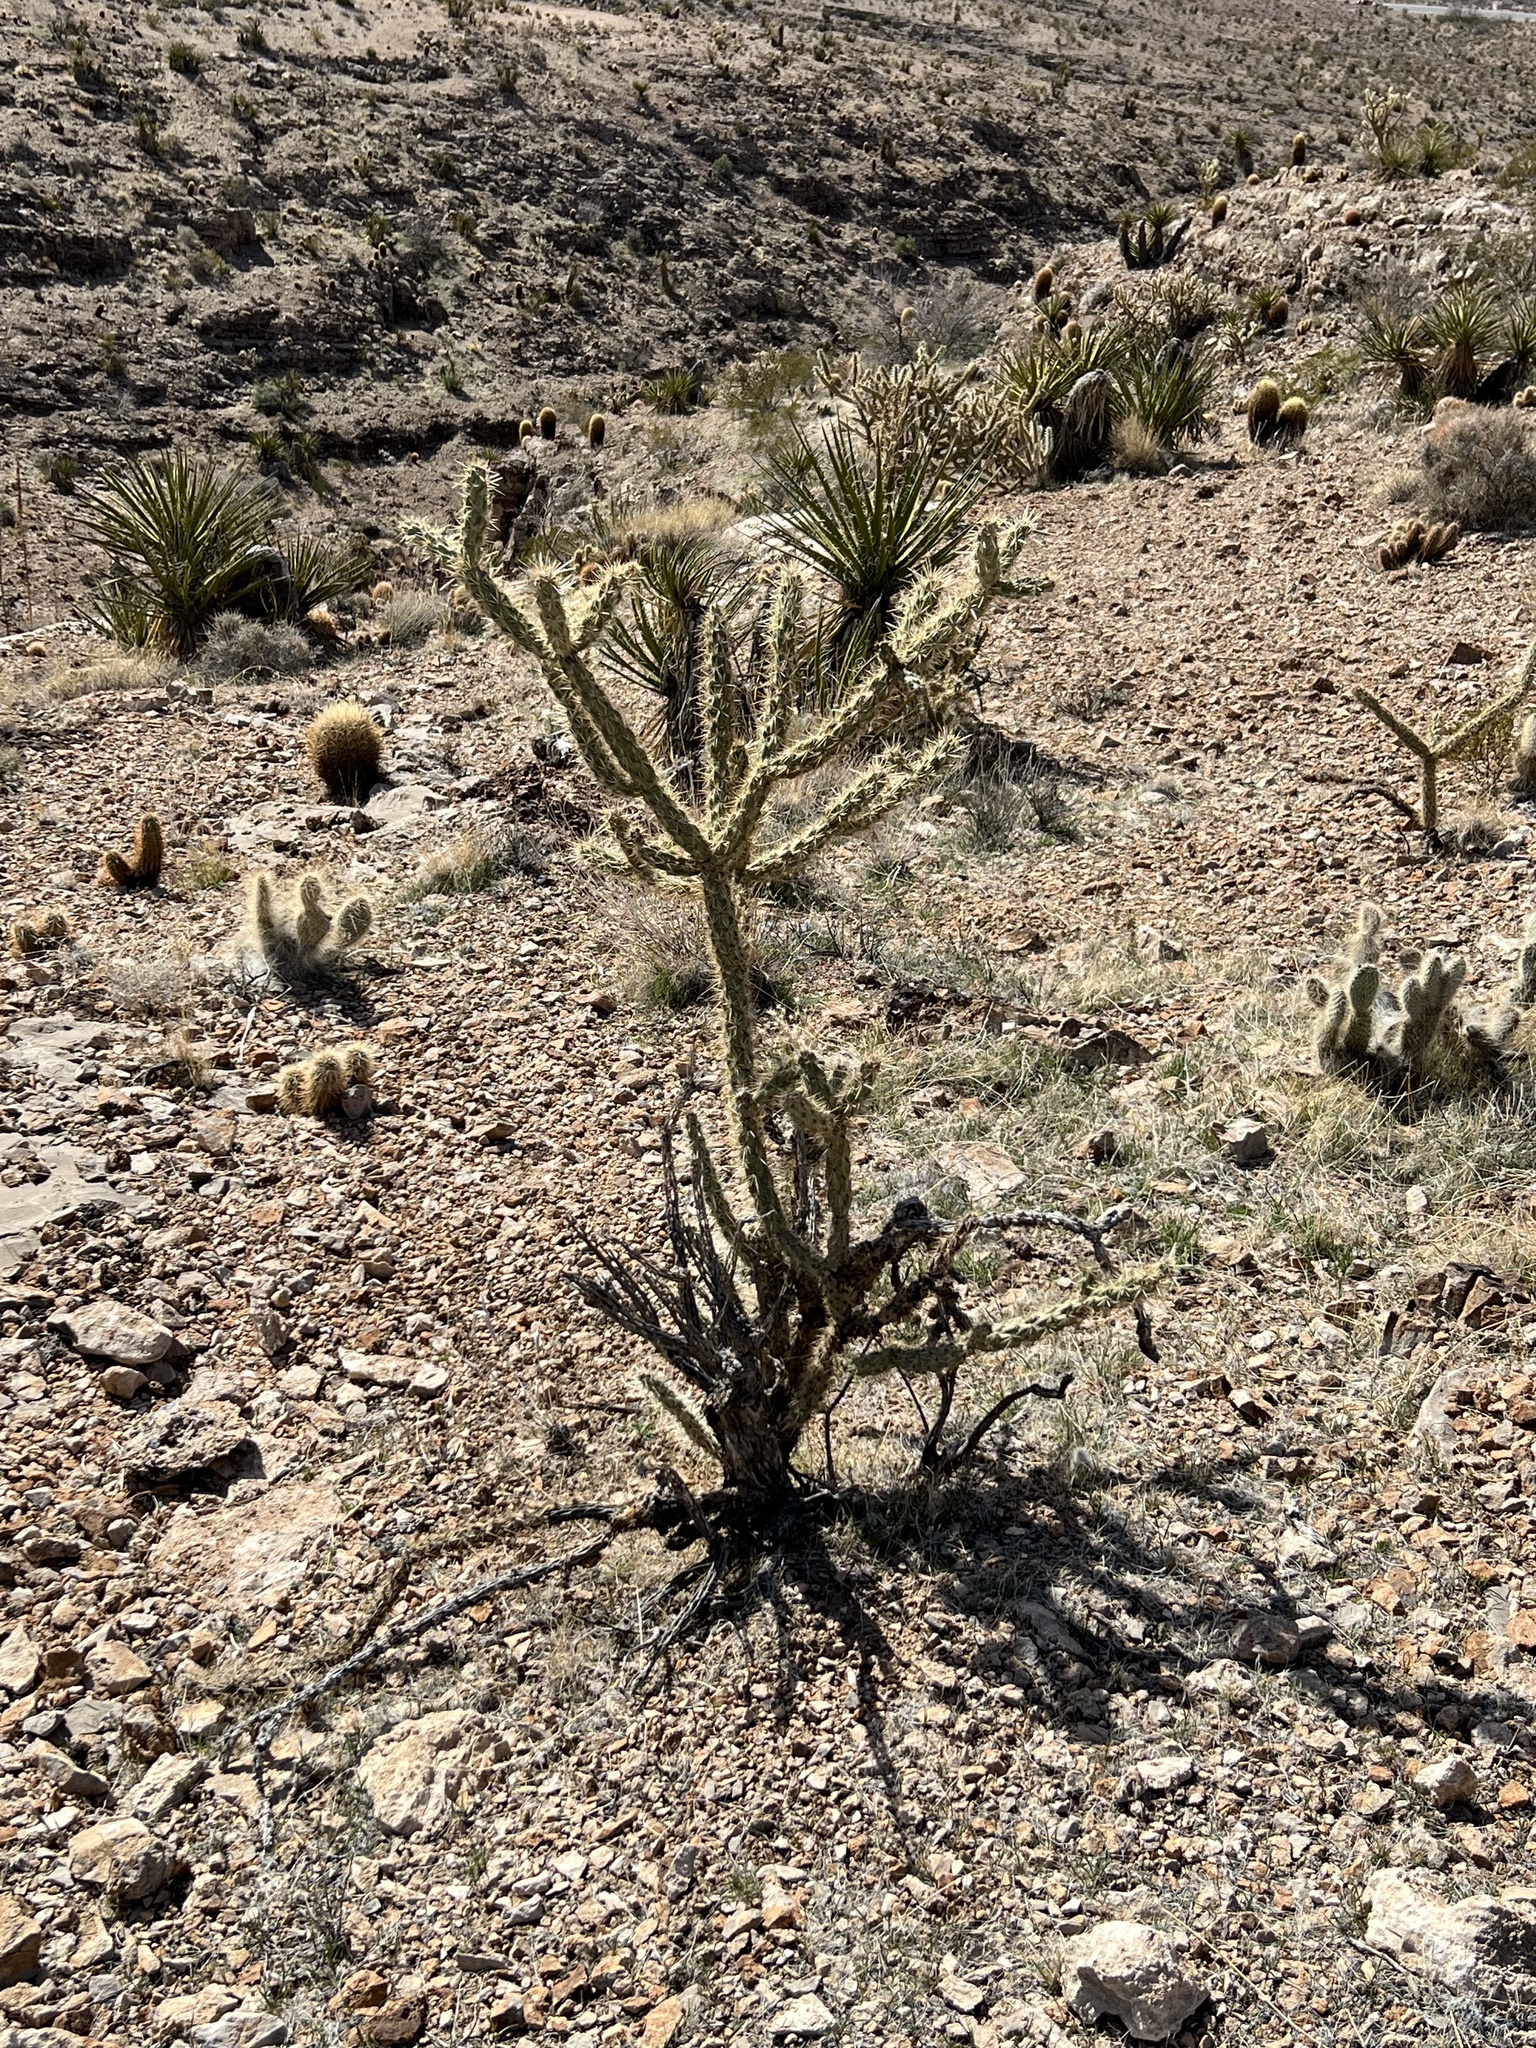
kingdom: Plantae
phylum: Tracheophyta
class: Magnoliopsida
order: Caryophyllales
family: Cactaceae
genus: Cylindropuntia
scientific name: Cylindropuntia acanthocarpa
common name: Buckhorn cholla
